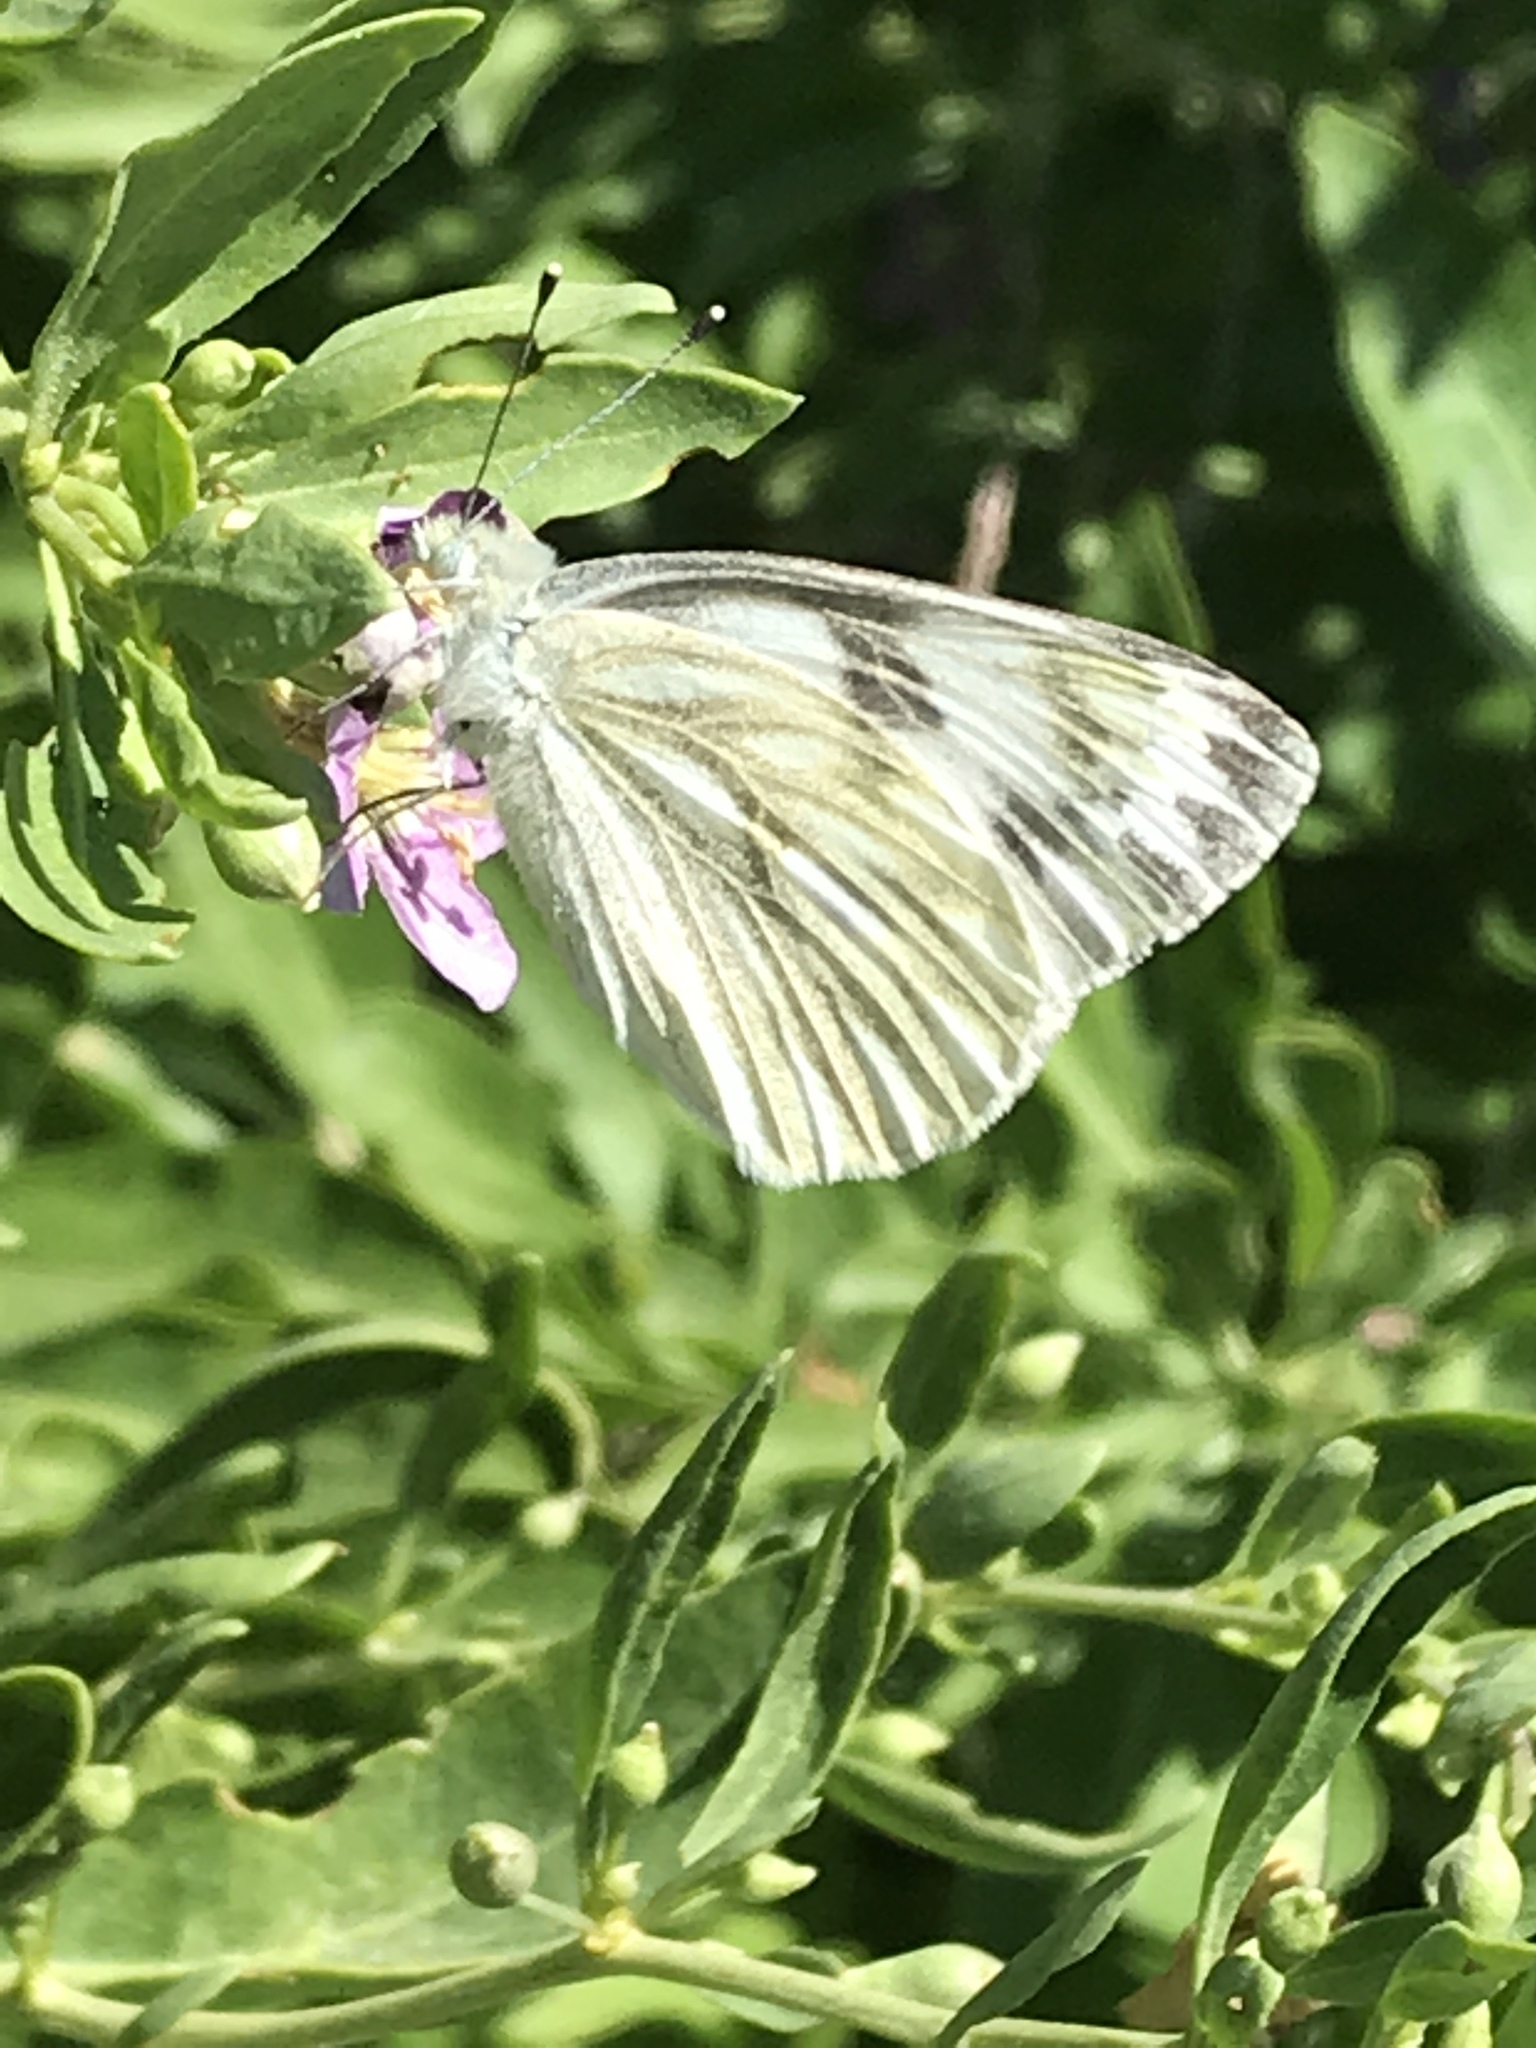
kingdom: Animalia
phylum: Arthropoda
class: Insecta
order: Lepidoptera
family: Pieridae
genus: Pontia
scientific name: Pontia protodice
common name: Checkered white
